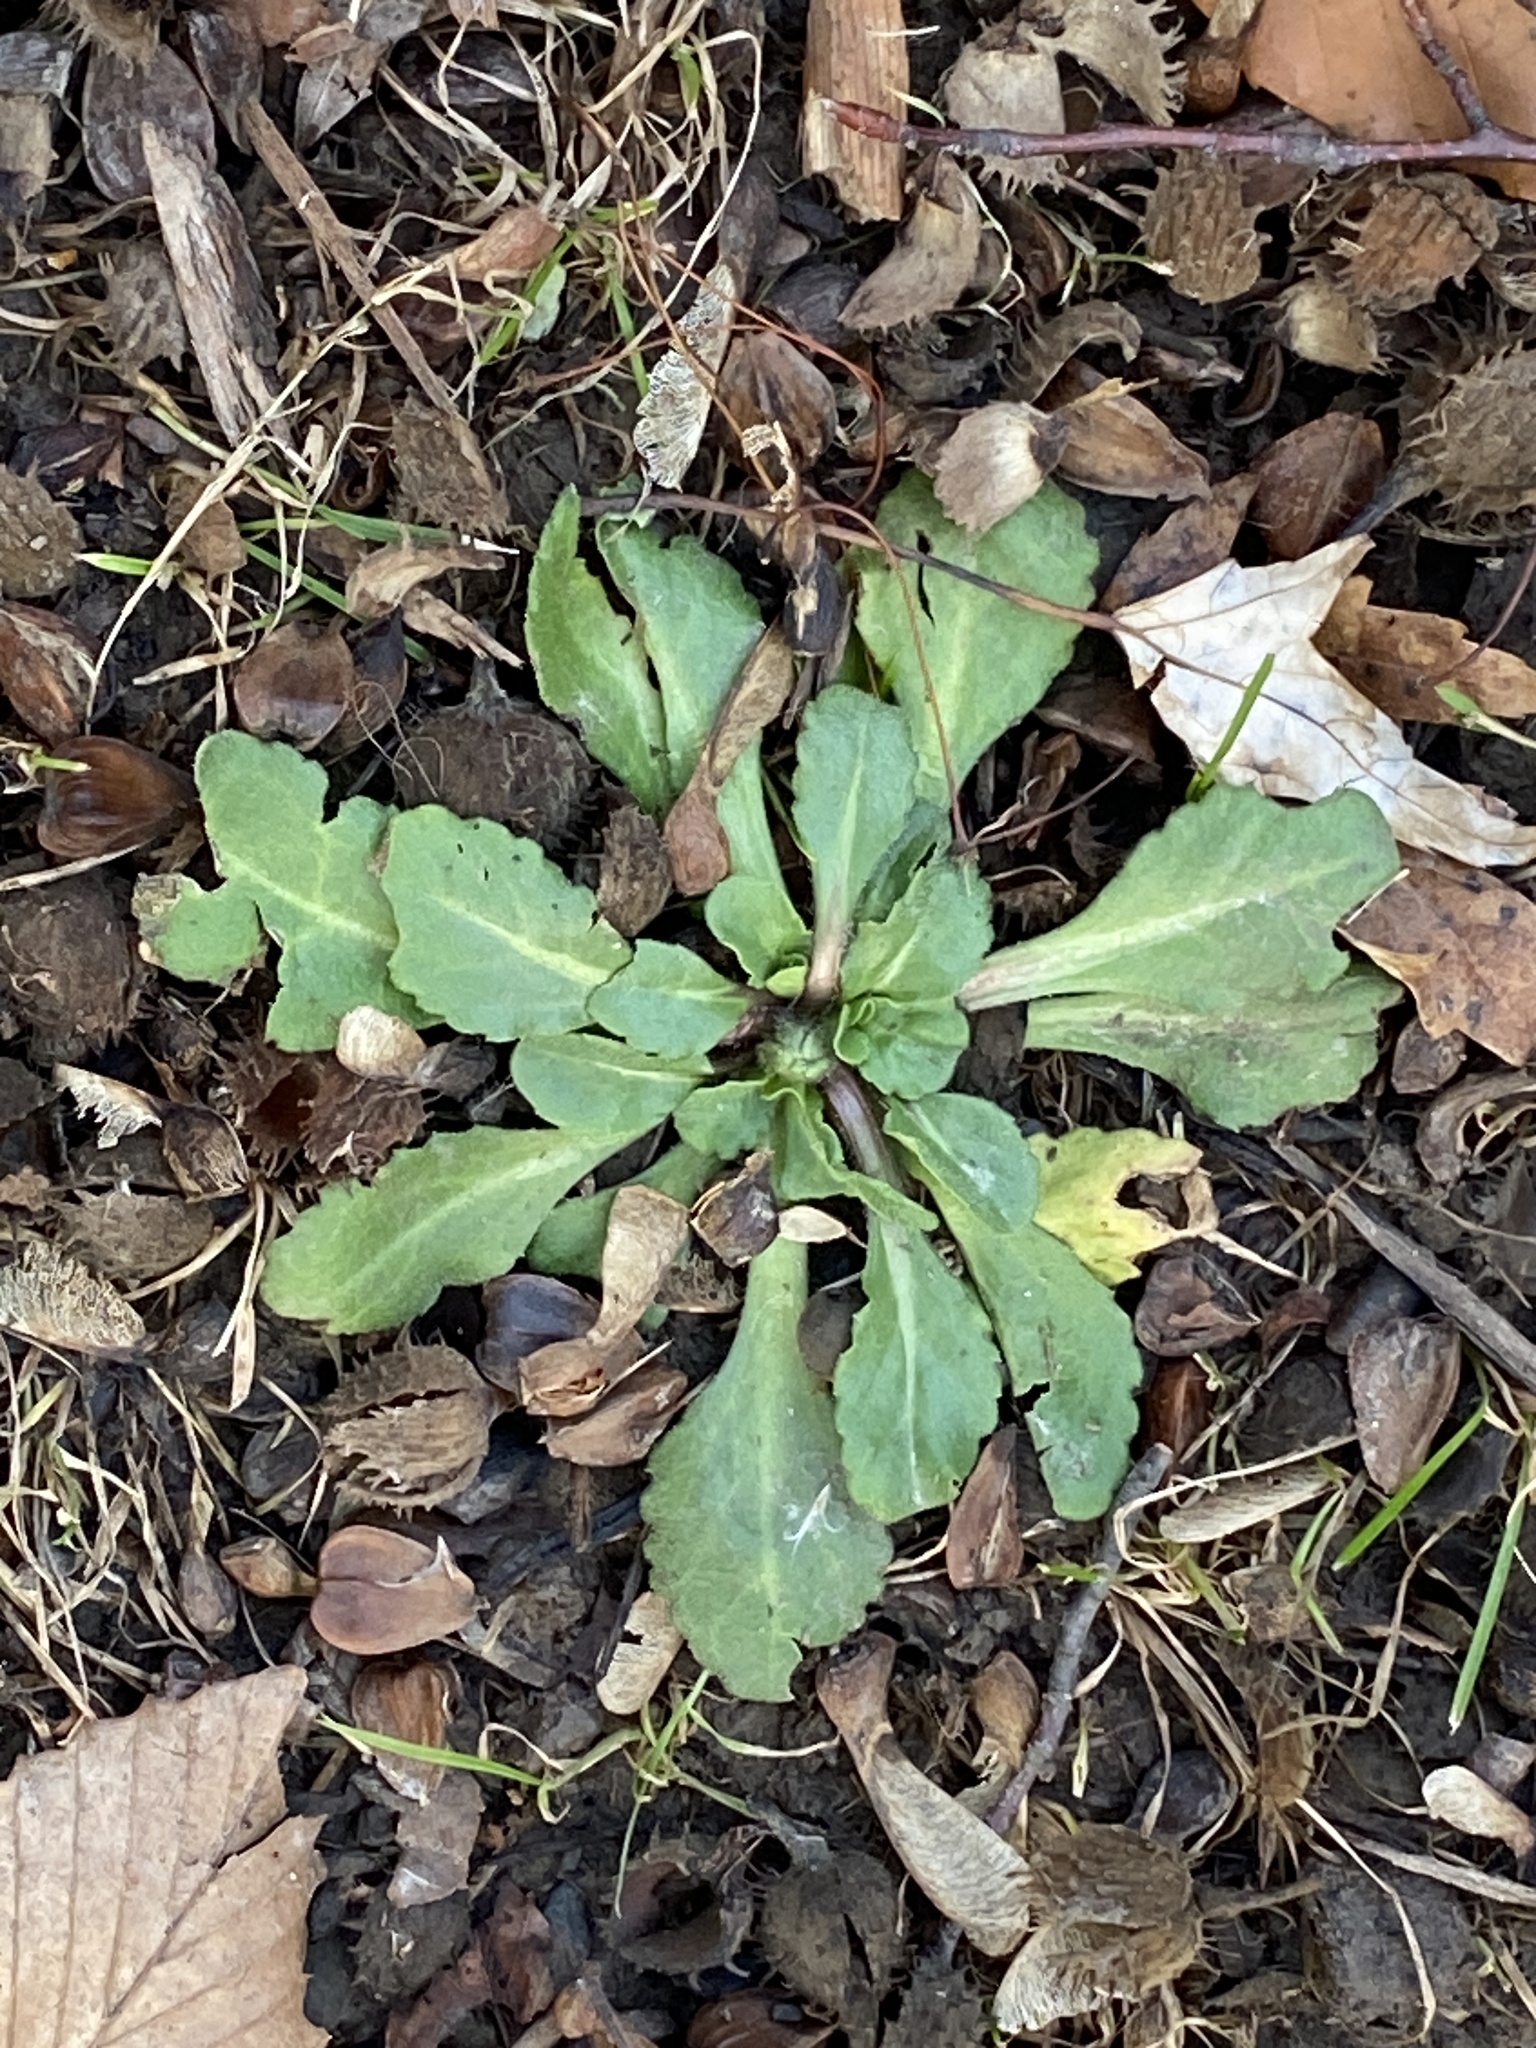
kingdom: Plantae
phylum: Tracheophyta
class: Magnoliopsida
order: Asterales
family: Campanulaceae
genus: Lobelia
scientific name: Lobelia inflata
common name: Indian tobacco
